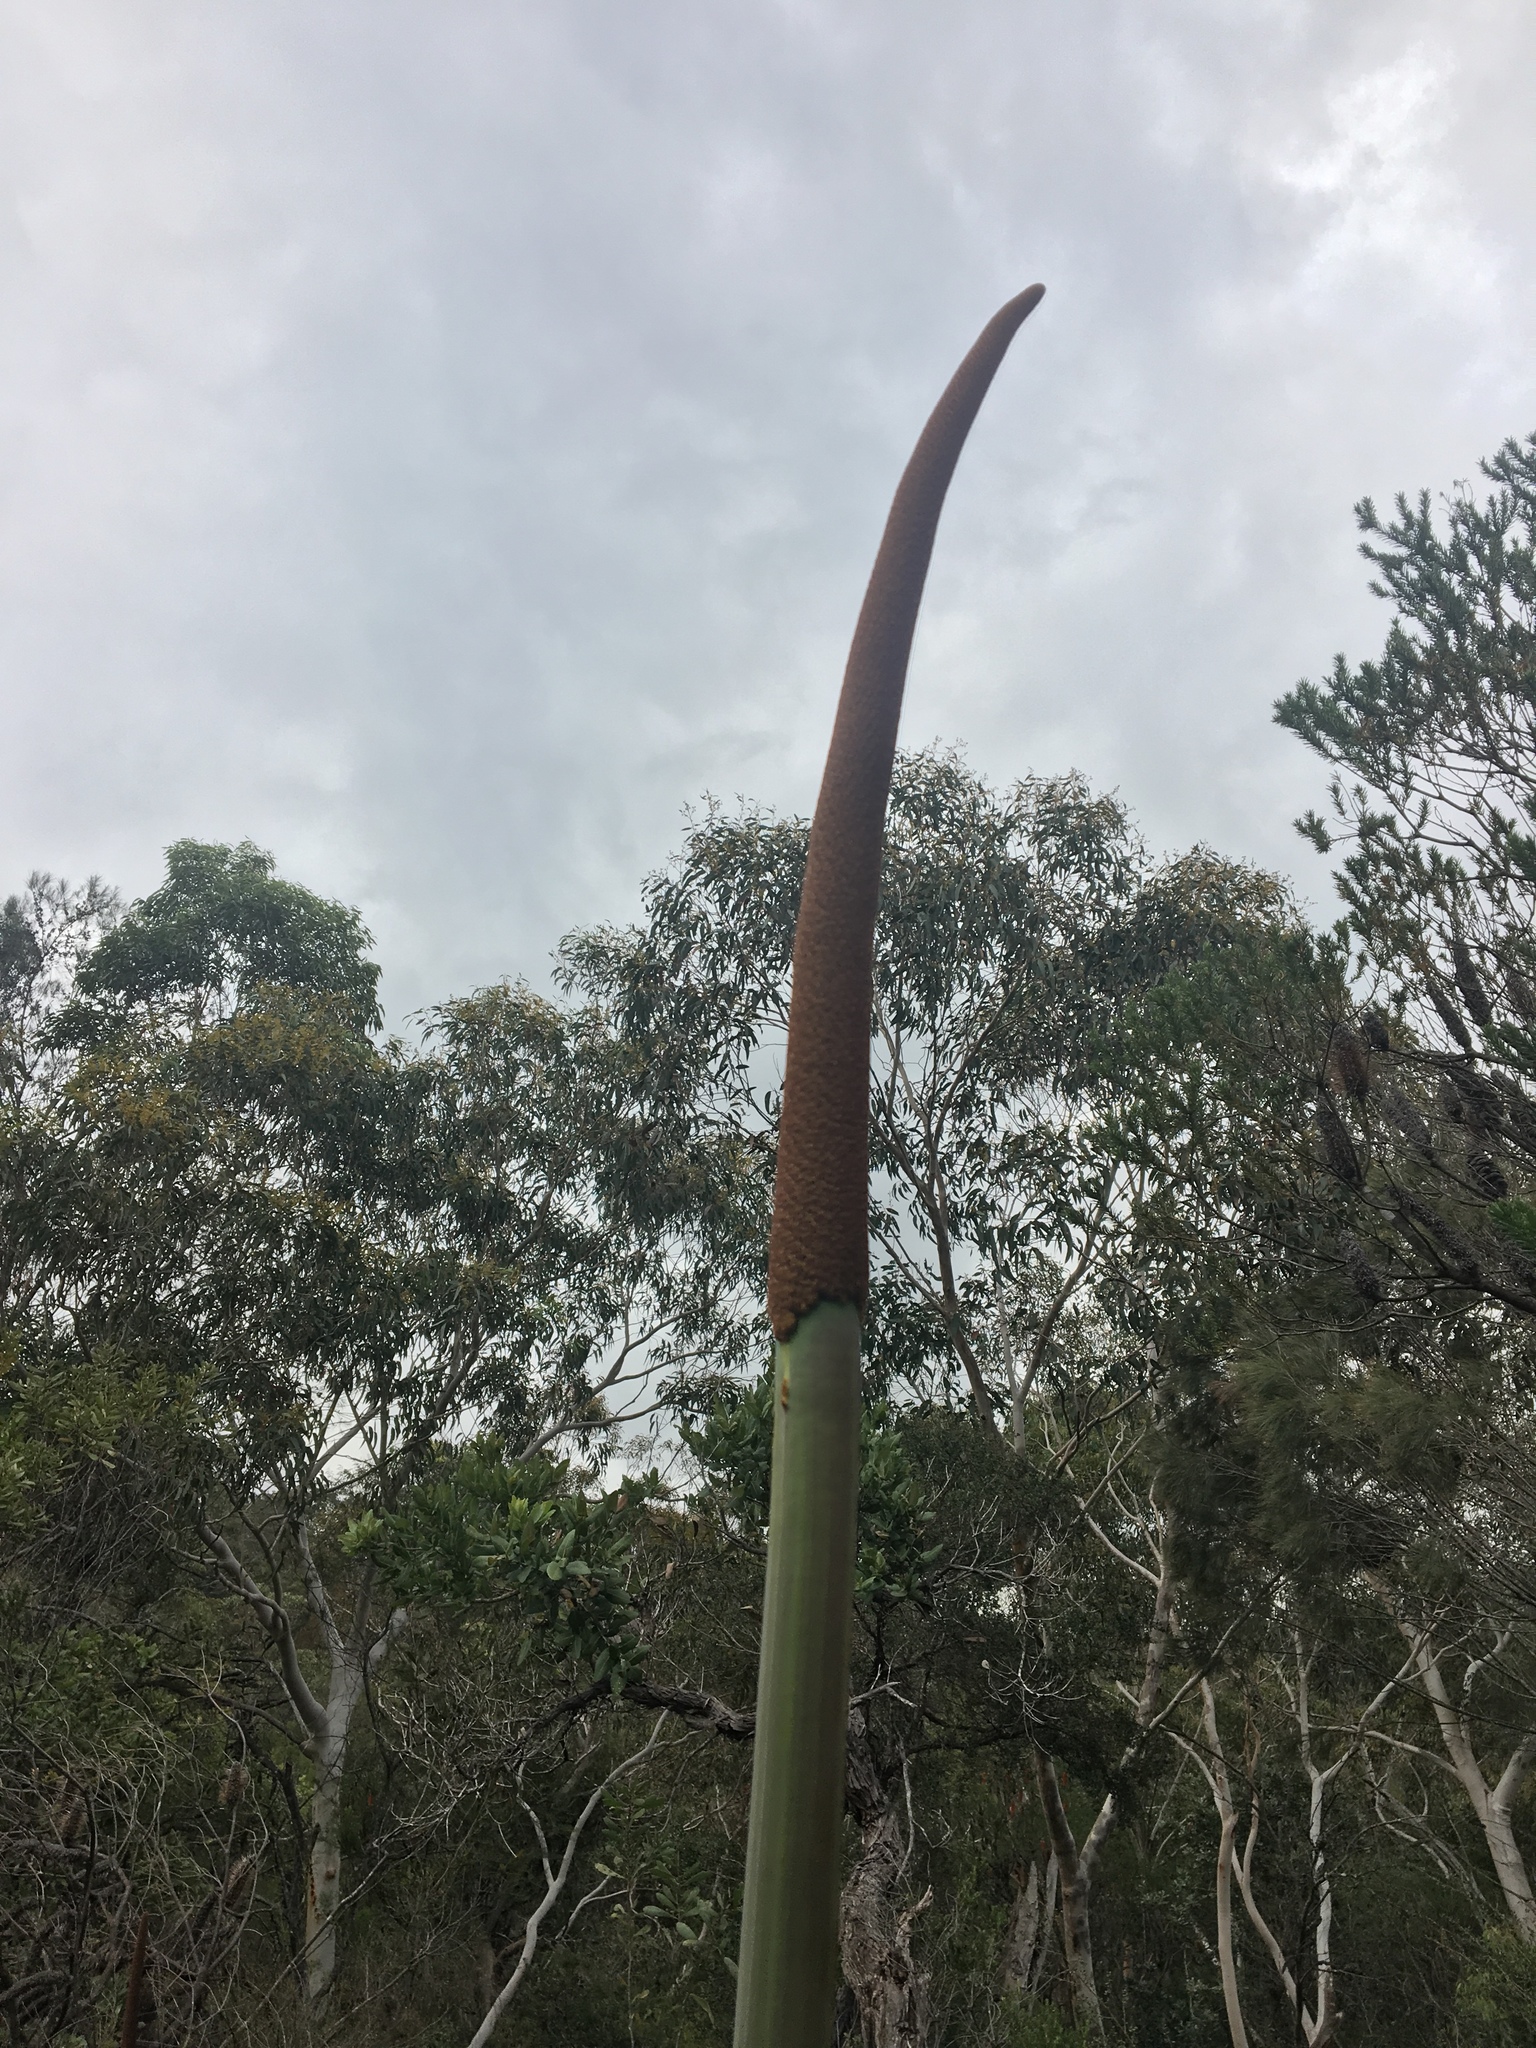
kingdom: Plantae
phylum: Tracheophyta
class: Liliopsida
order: Asparagales
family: Asphodelaceae
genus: Xanthorrhoea
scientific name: Xanthorrhoea resinosa
